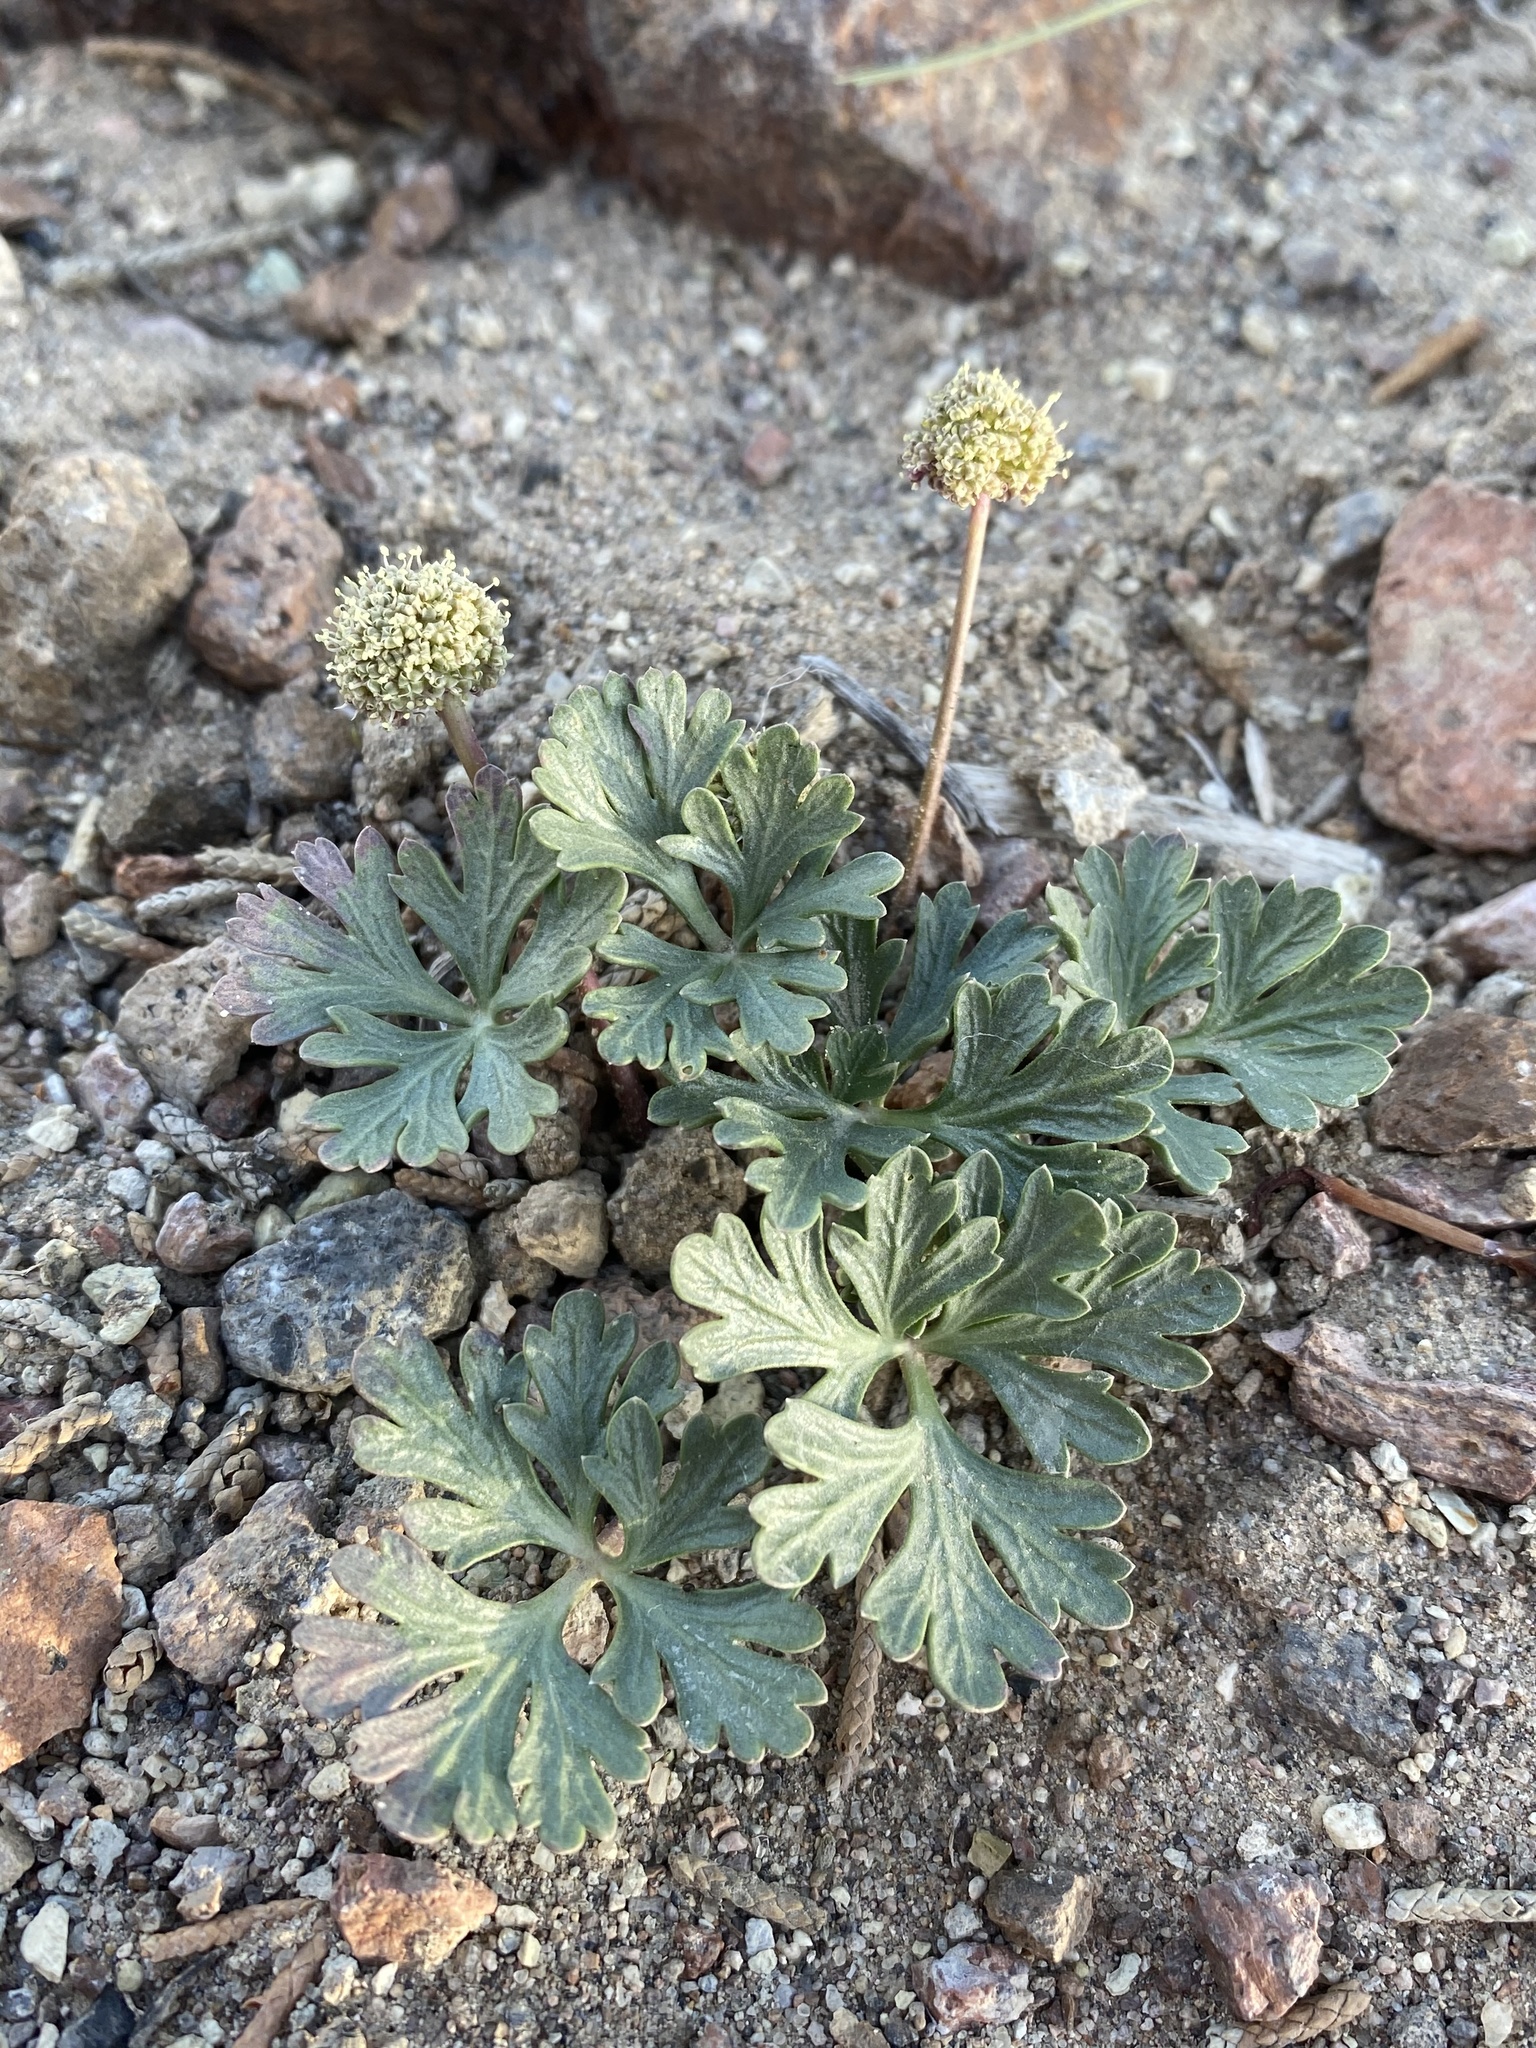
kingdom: Plantae
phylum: Tracheophyta
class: Magnoliopsida
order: Apiales
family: Apiaceae
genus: Cymopterus
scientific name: Cymopterus ripleyi
